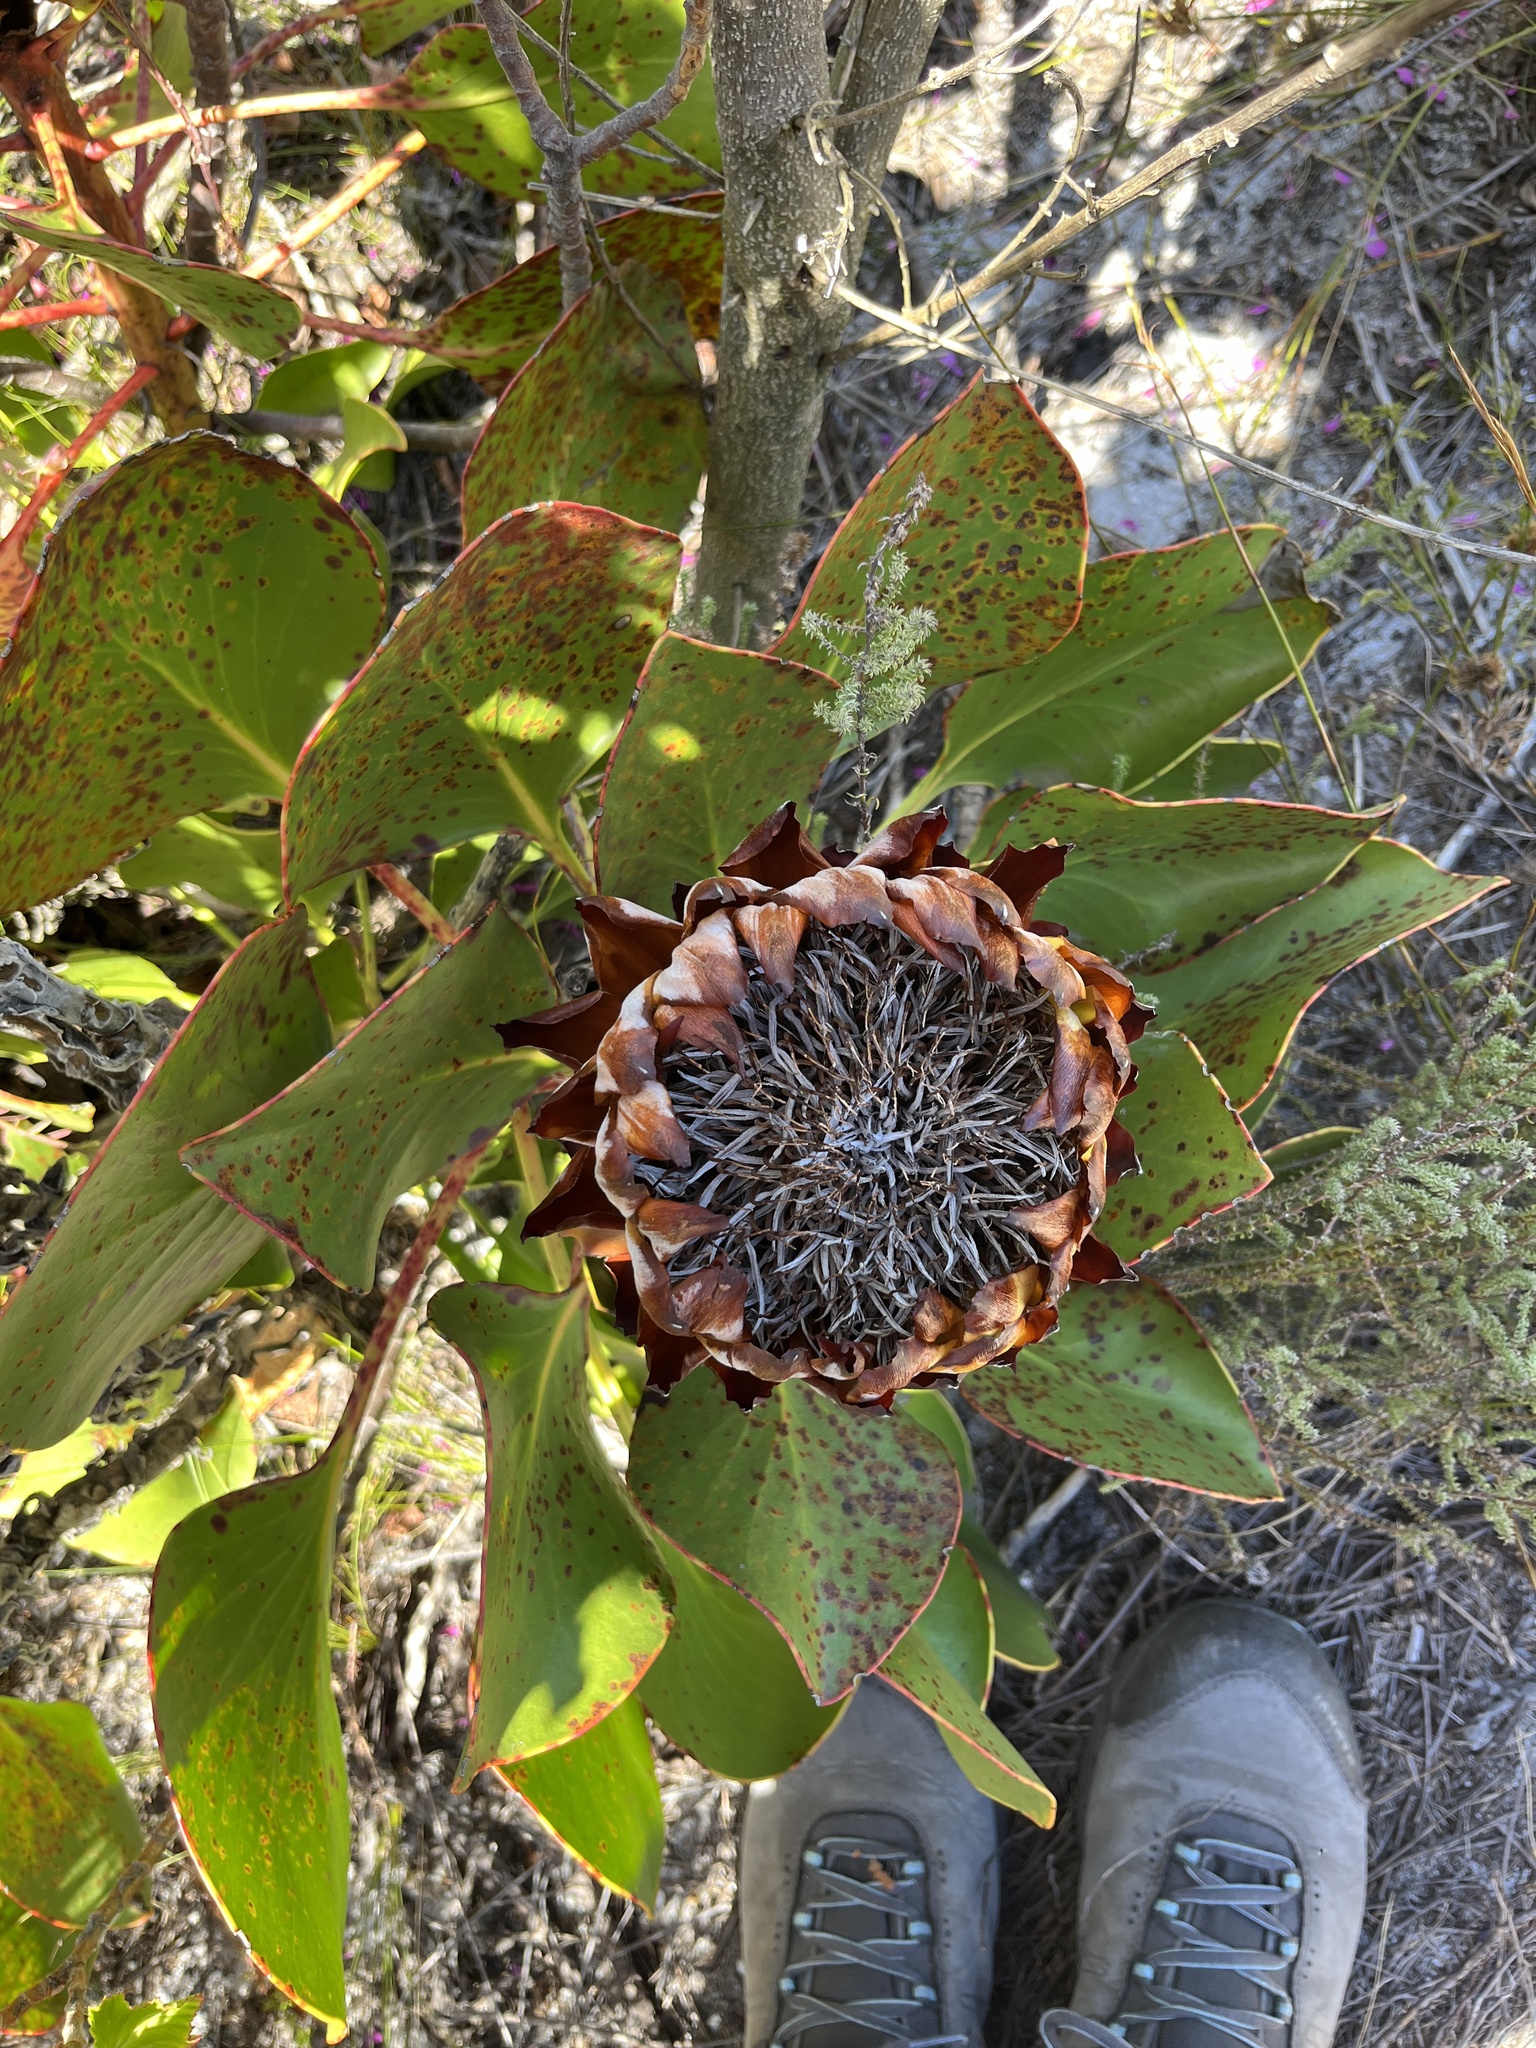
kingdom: Plantae
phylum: Tracheophyta
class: Magnoliopsida
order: Proteales
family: Proteaceae
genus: Protea
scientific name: Protea cynaroides
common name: King protea
